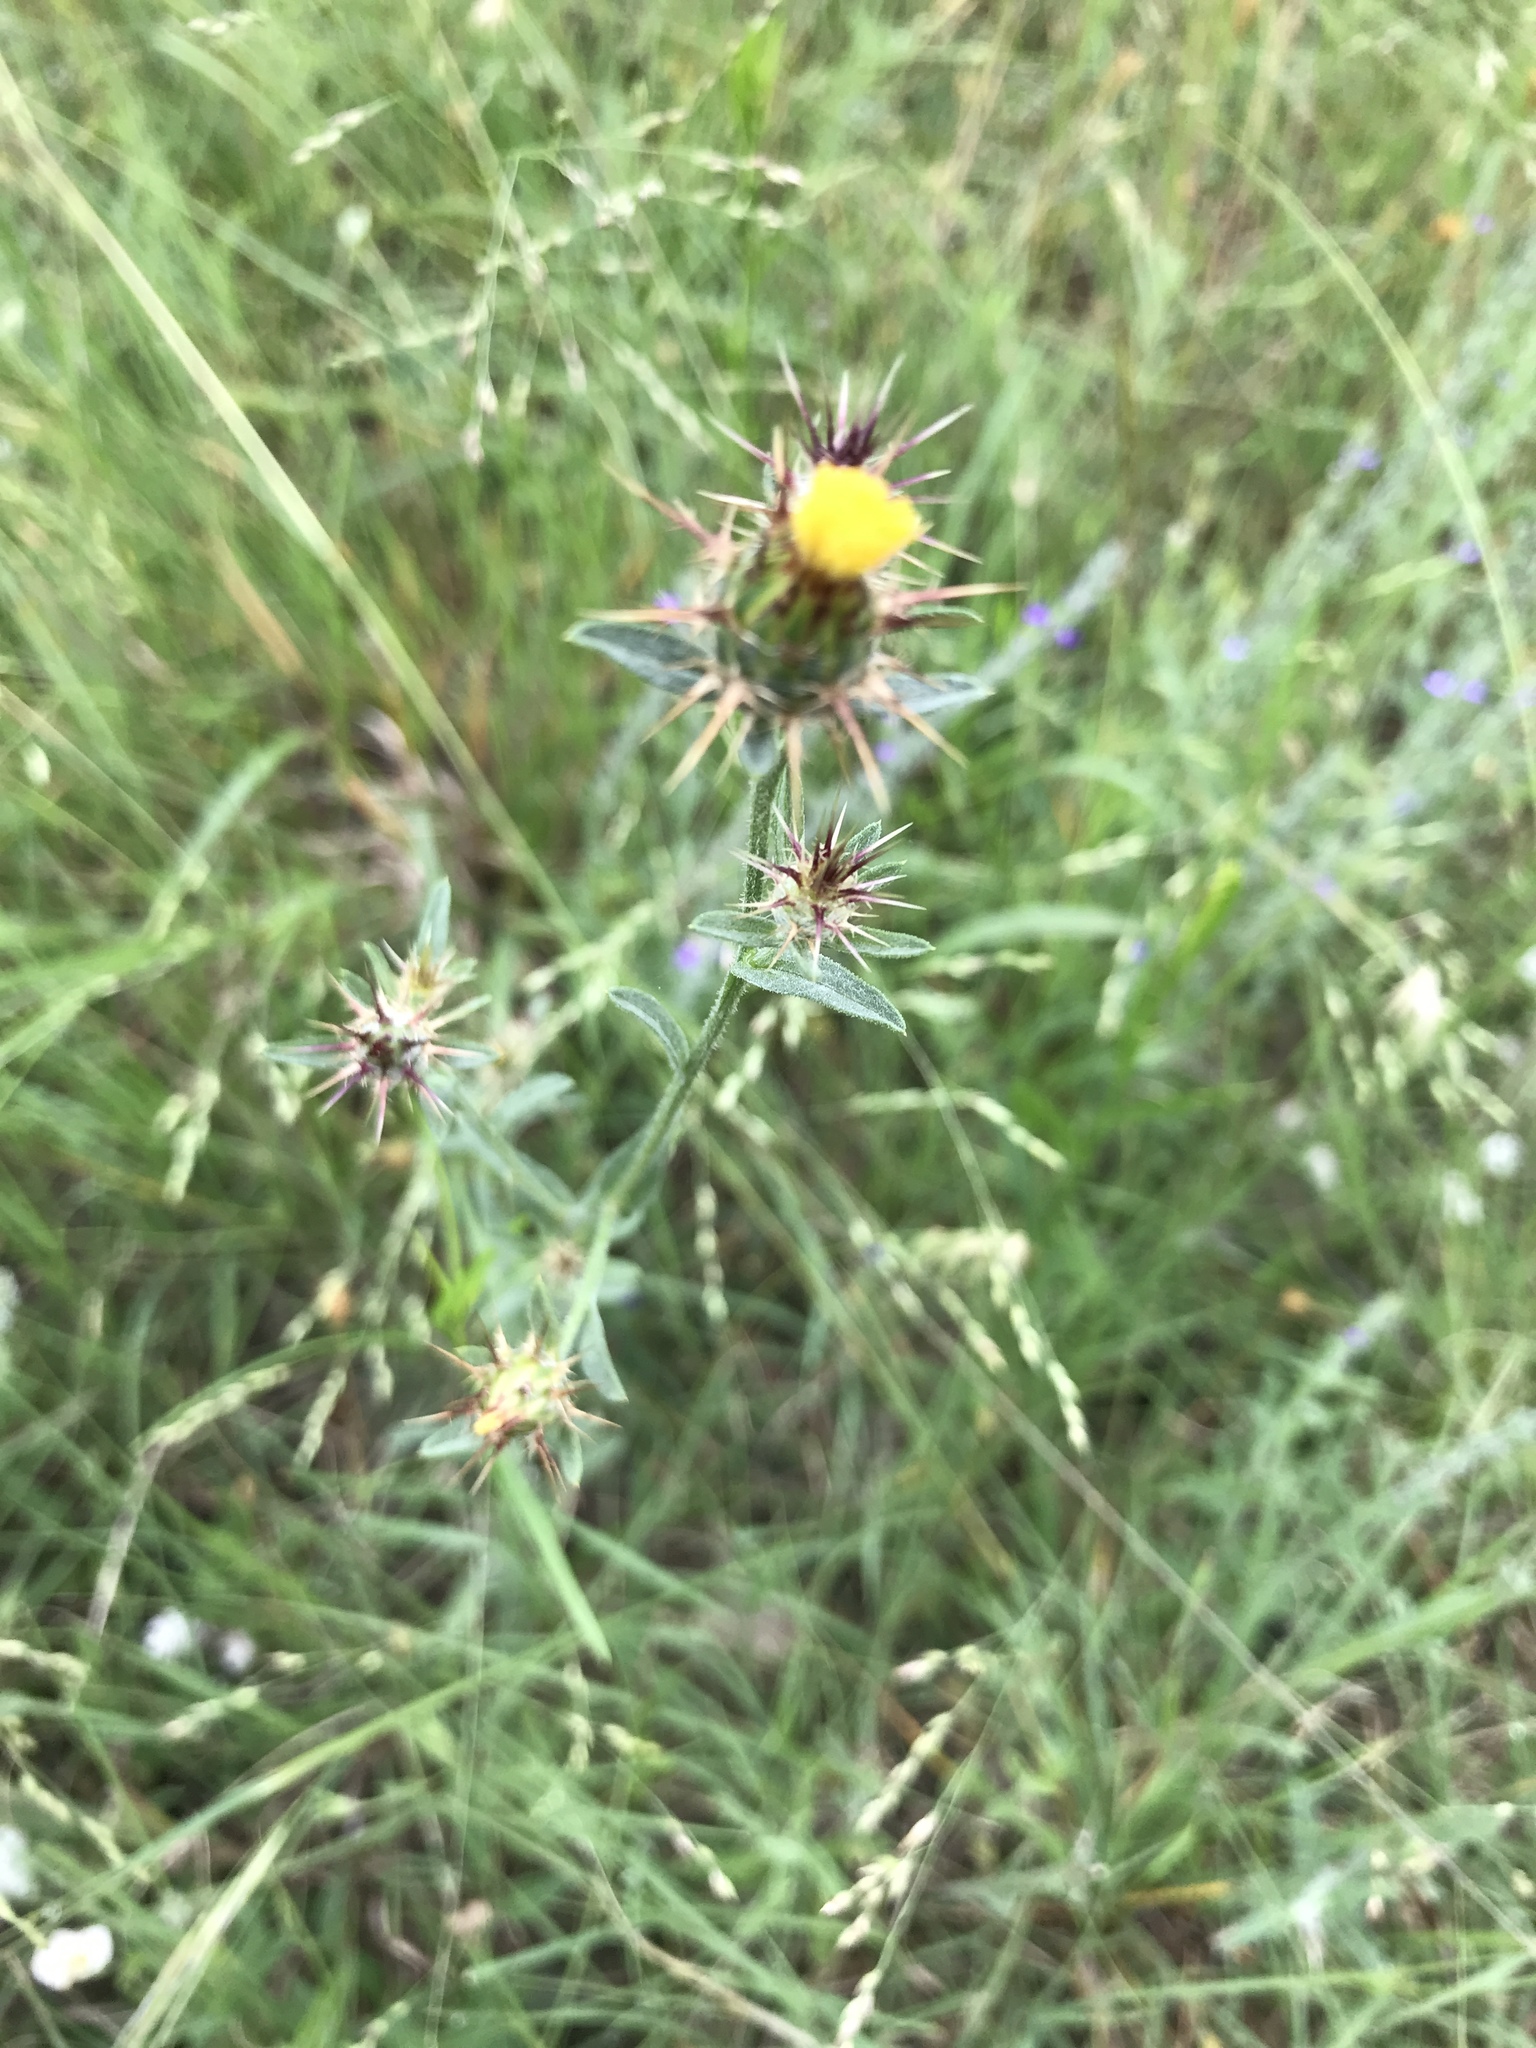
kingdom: Plantae
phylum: Tracheophyta
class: Magnoliopsida
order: Asterales
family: Asteraceae
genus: Centaurea
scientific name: Centaurea melitensis
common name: Maltese star-thistle
